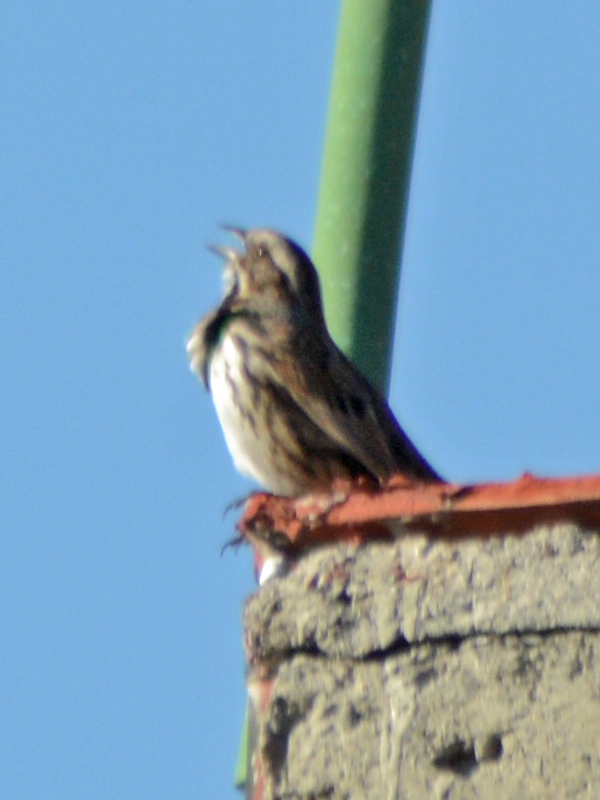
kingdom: Animalia
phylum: Chordata
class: Aves
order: Passeriformes
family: Passerellidae
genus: Melospiza
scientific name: Melospiza melodia
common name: Song sparrow
